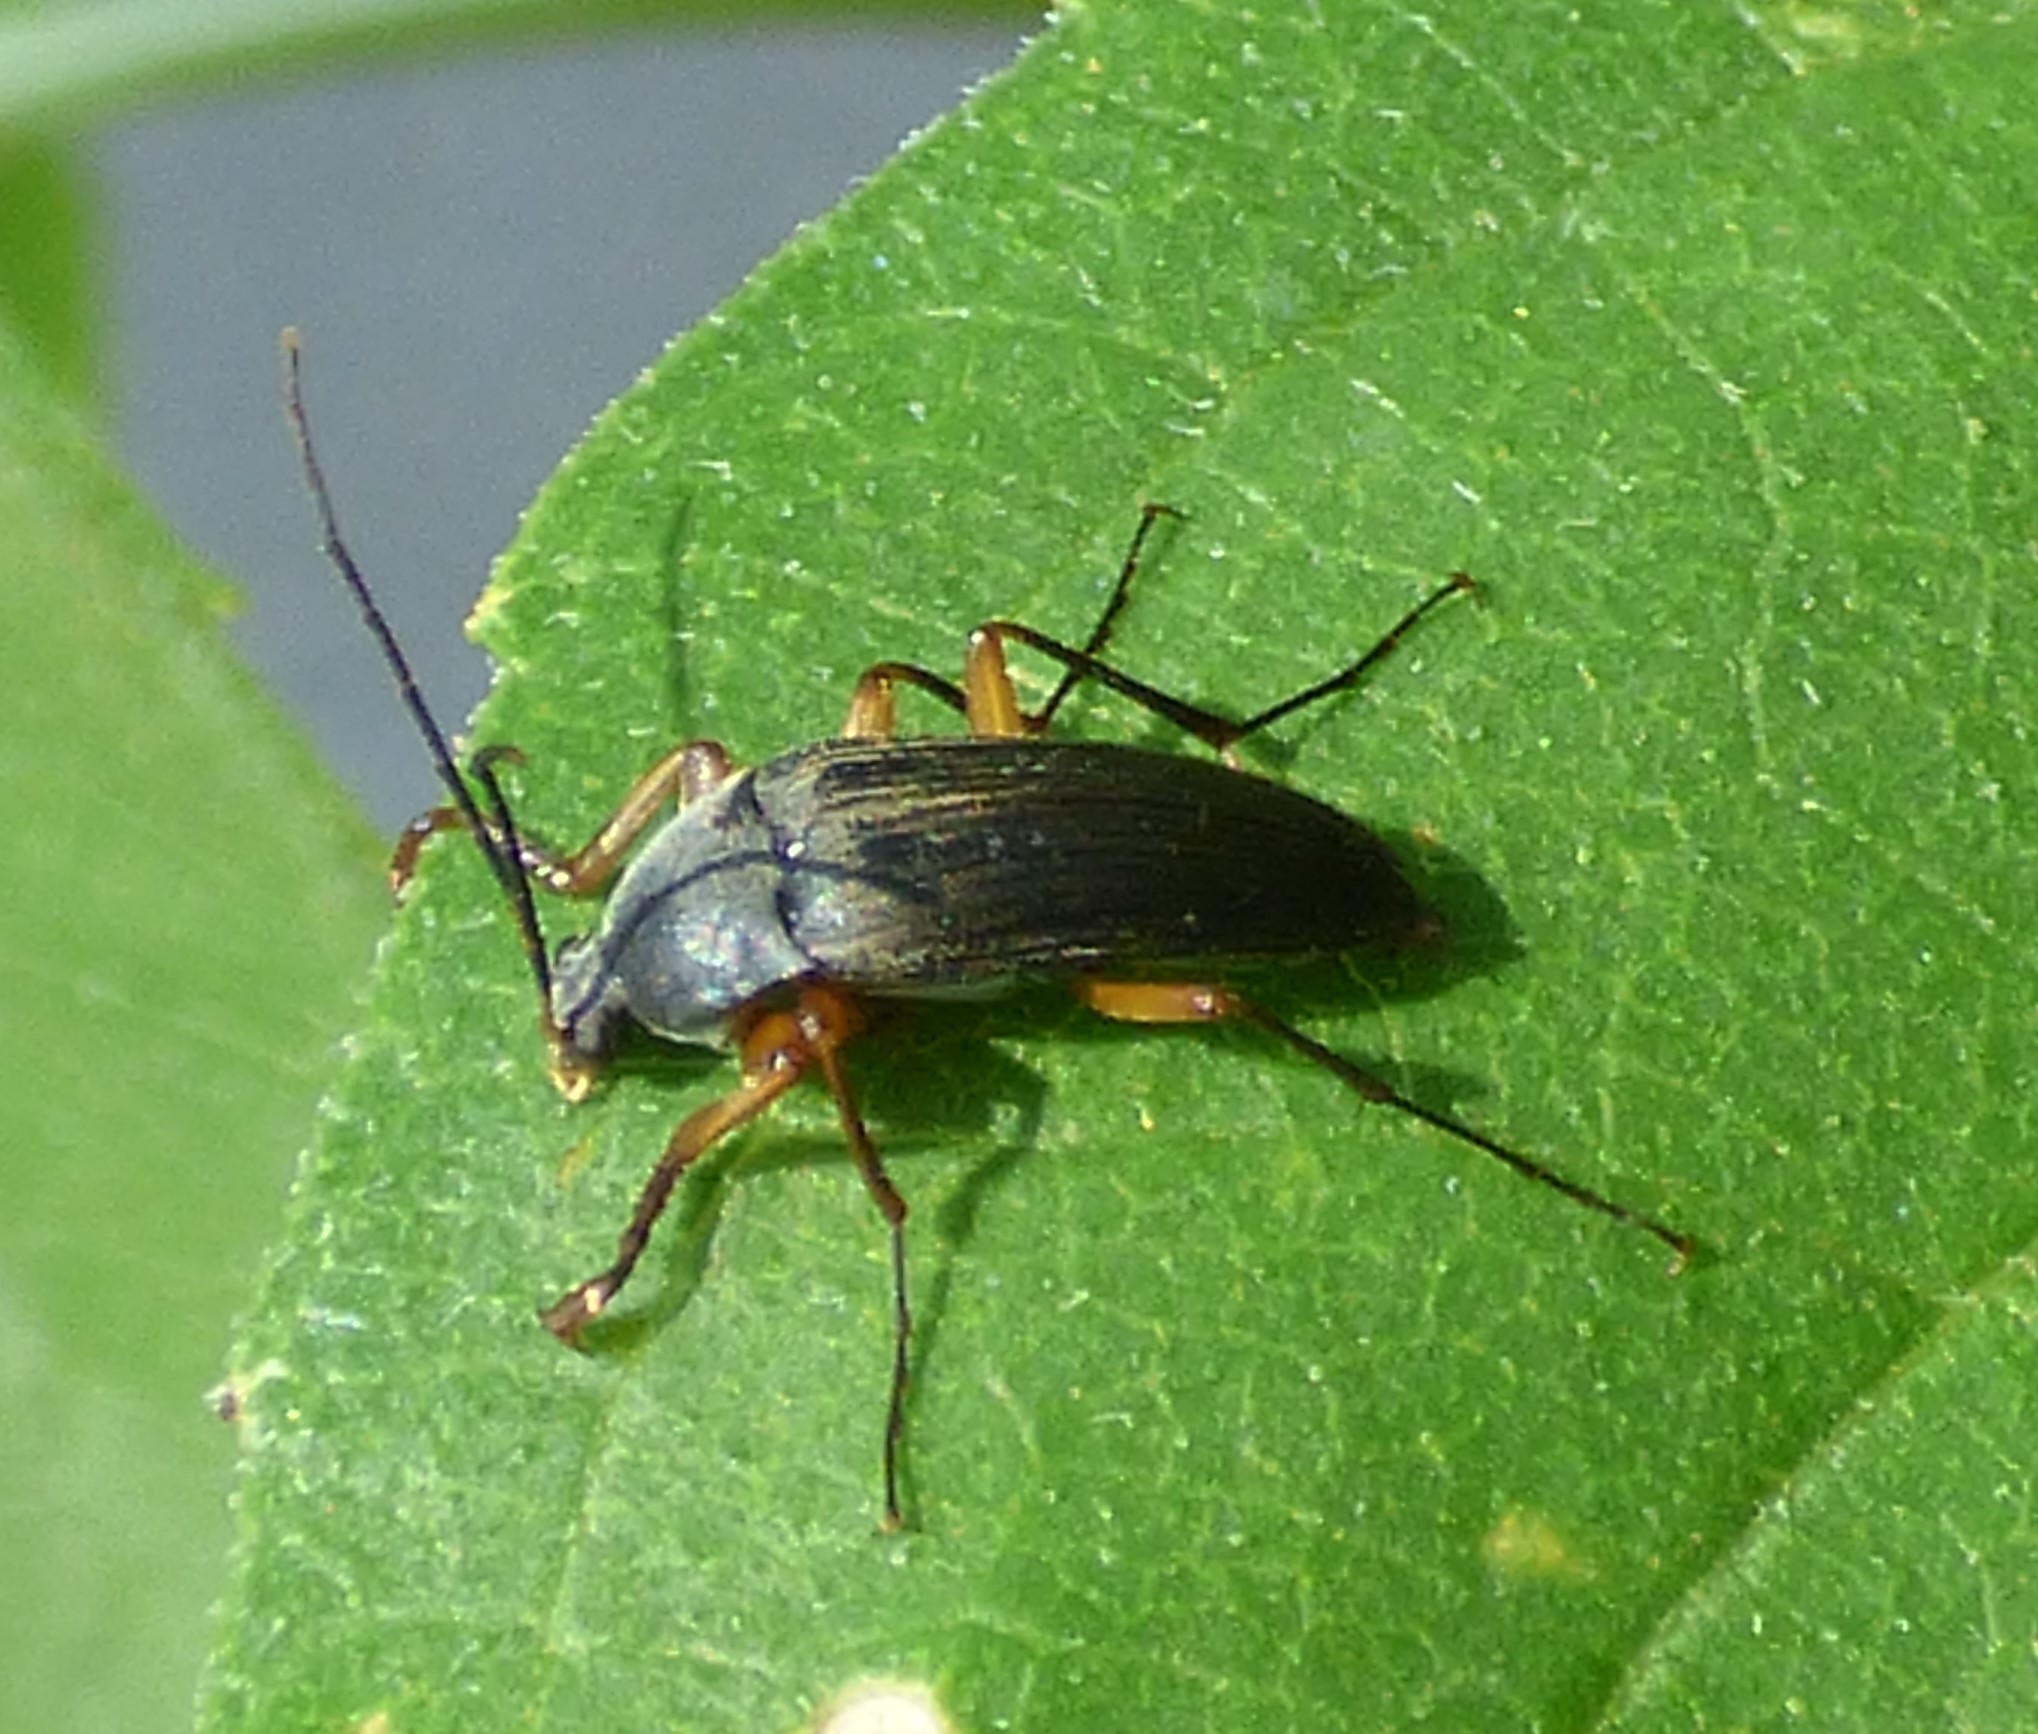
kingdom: Animalia
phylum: Arthropoda
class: Insecta
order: Coleoptera
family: Tenebrionidae
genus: Androchirus
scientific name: Androchirus erythropus
